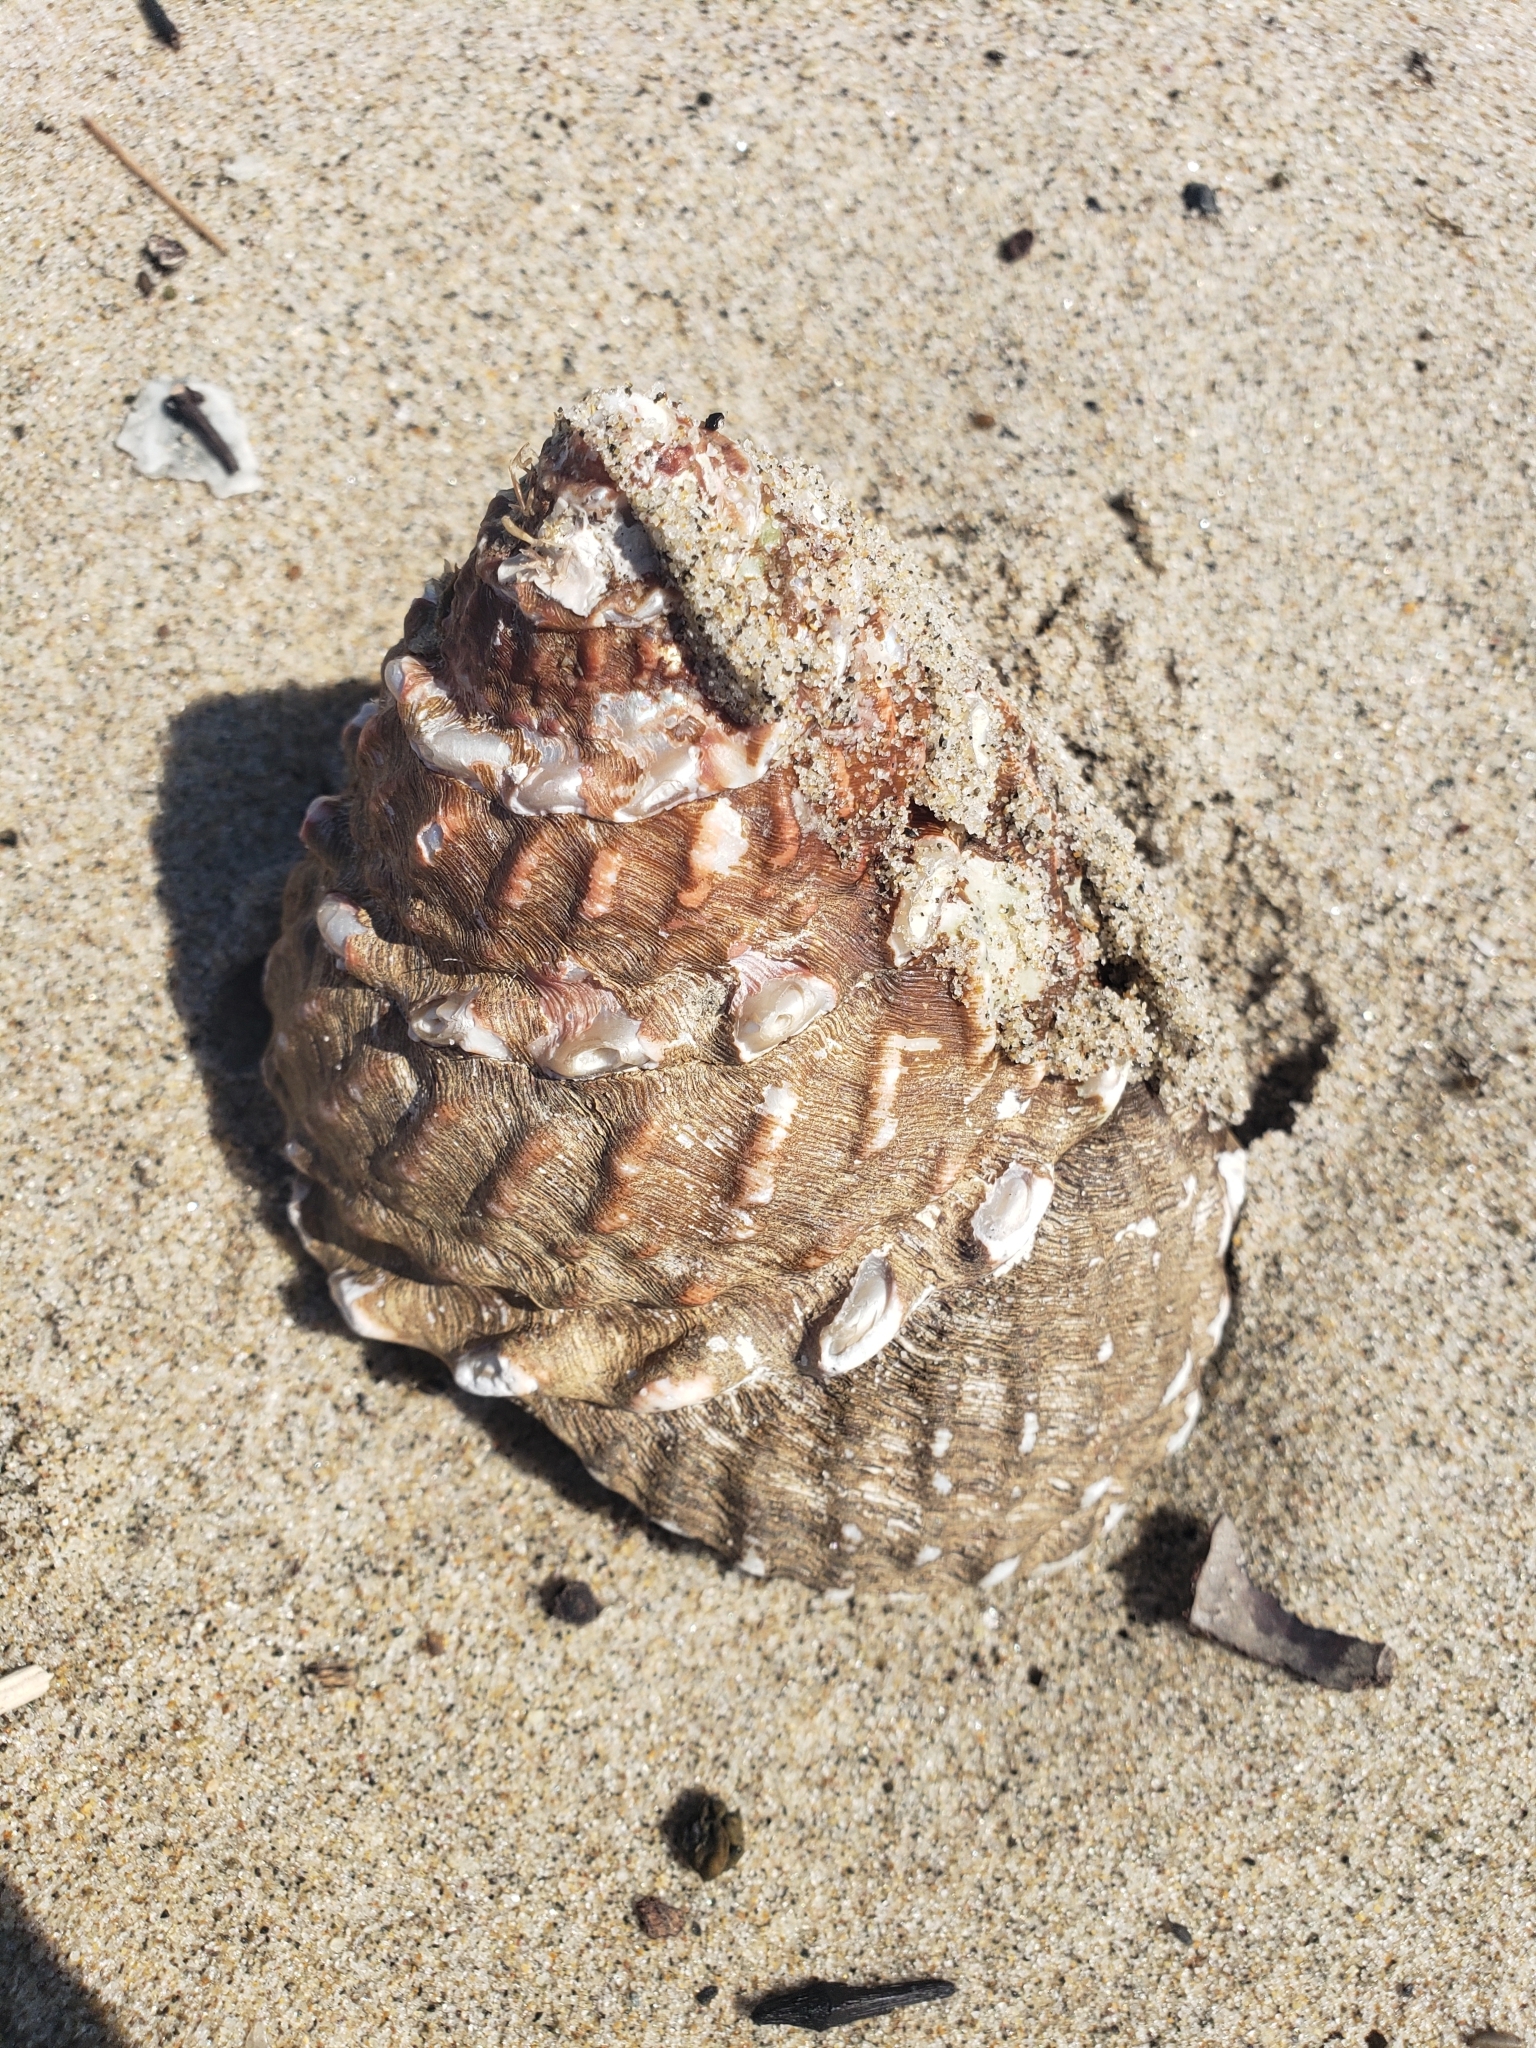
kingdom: Animalia
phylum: Mollusca
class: Gastropoda
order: Trochida
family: Turbinidae
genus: Megastraea
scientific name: Megastraea undosa
